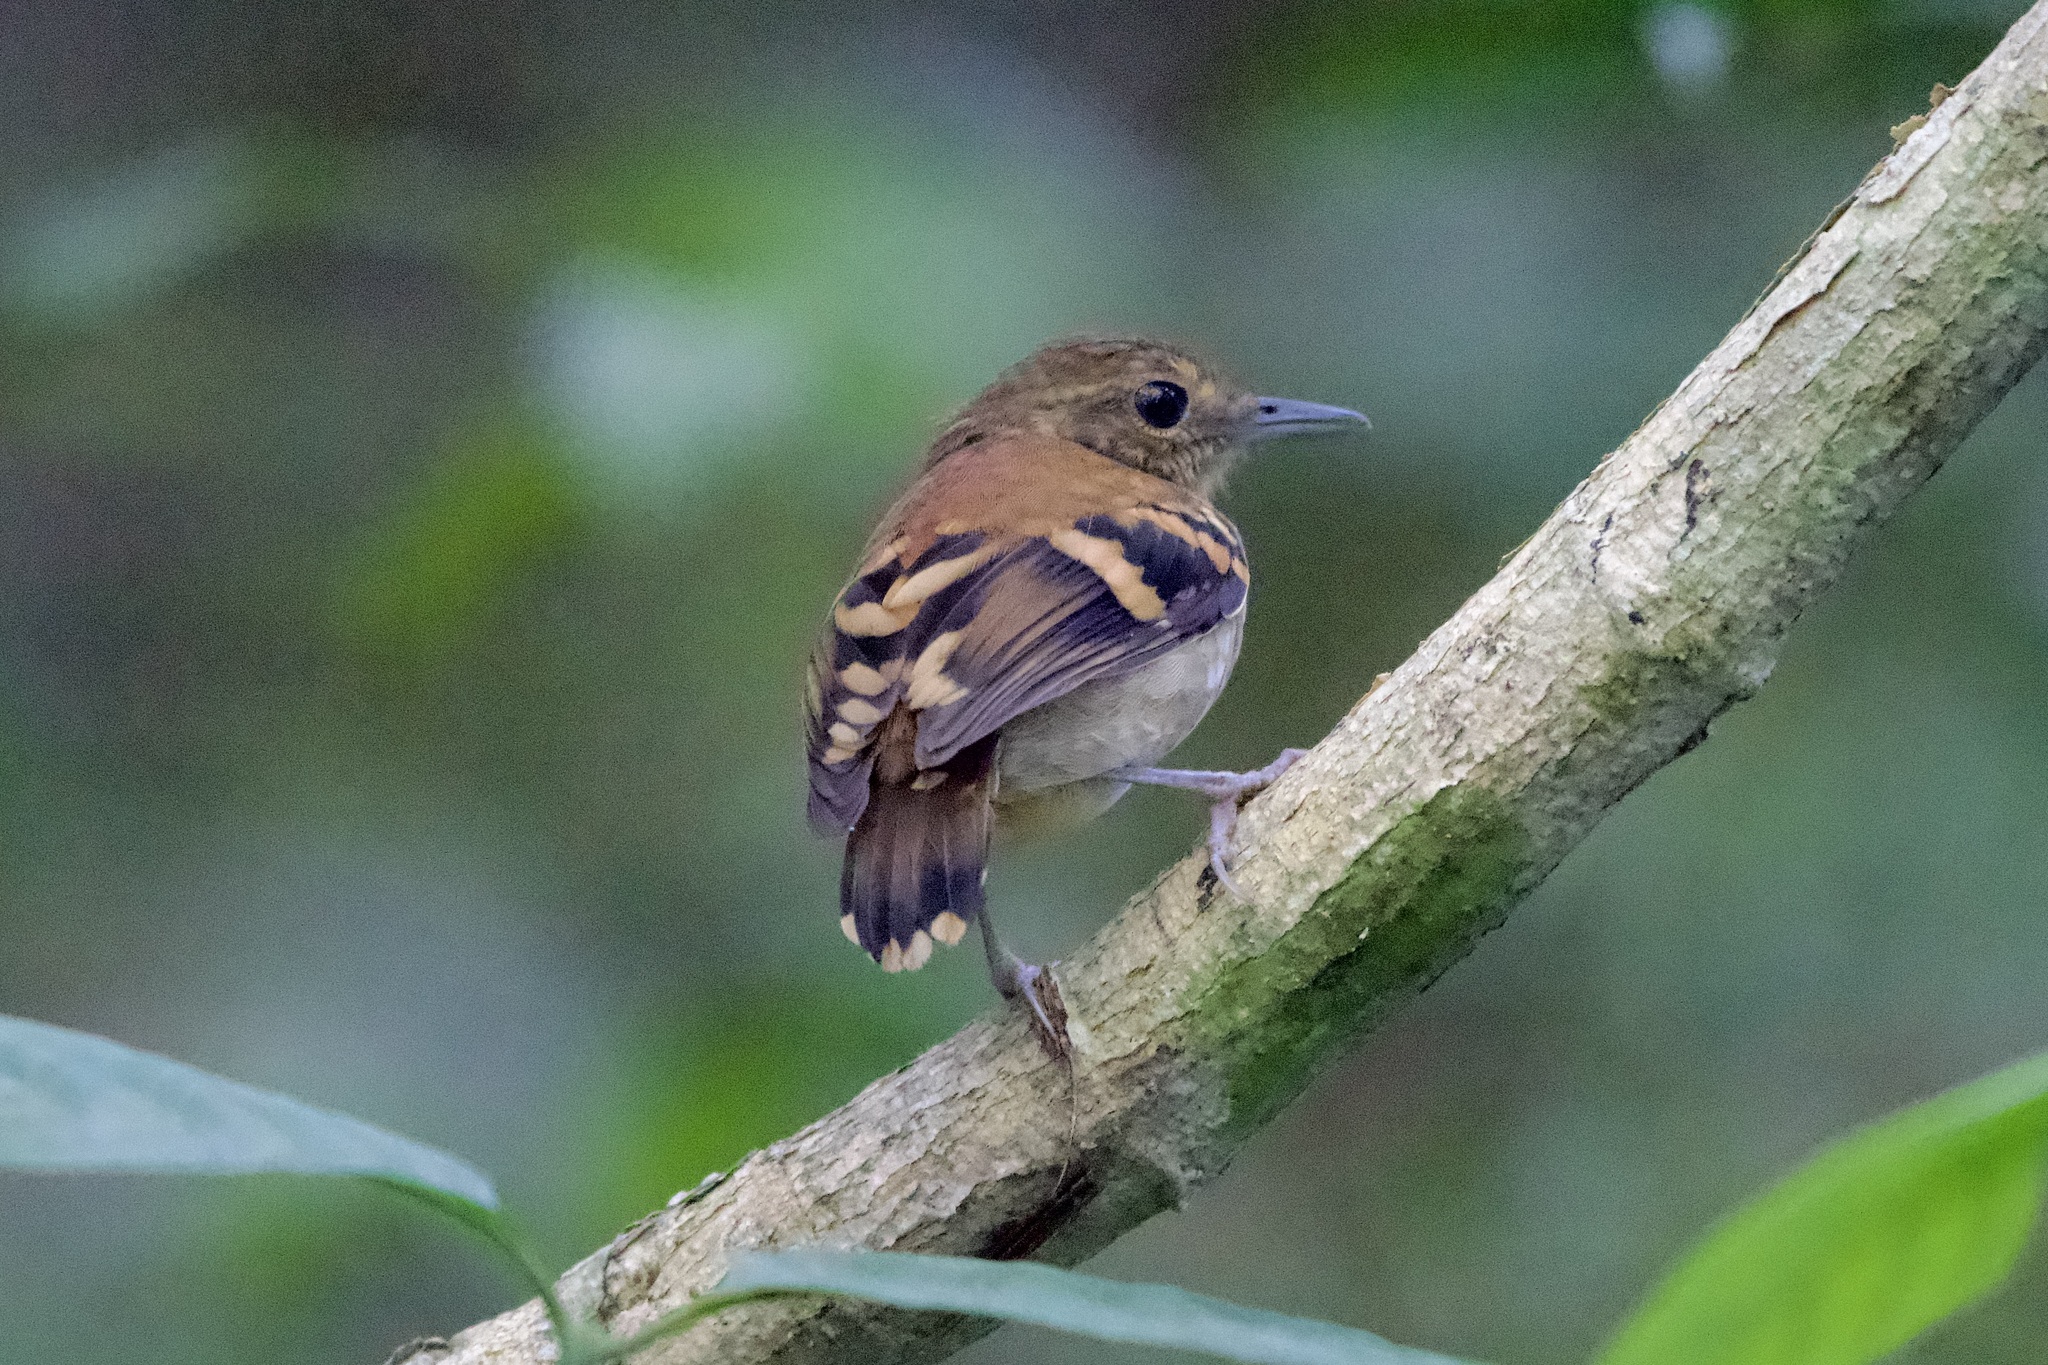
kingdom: Animalia
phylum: Chordata
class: Aves
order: Passeriformes
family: Thamnophilidae
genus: Hylophylax
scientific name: Hylophylax naevioides
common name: Spotted antbird
